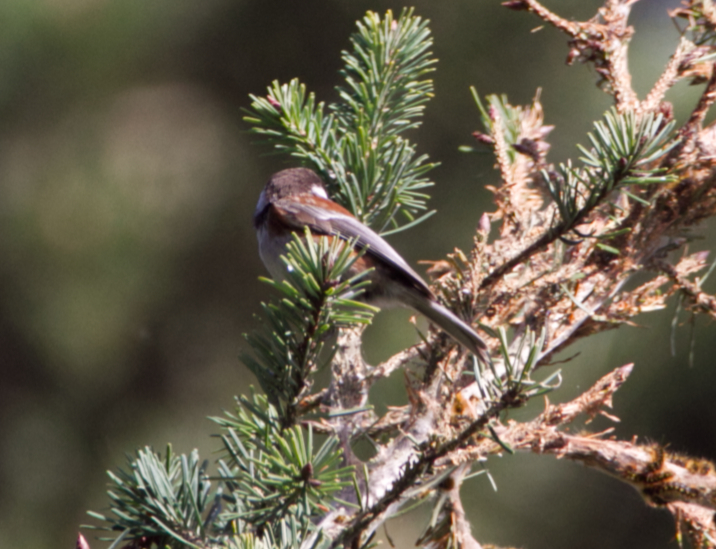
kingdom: Animalia
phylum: Chordata
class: Aves
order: Passeriformes
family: Paridae
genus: Poecile
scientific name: Poecile rufescens
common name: Chestnut-backed chickadee
